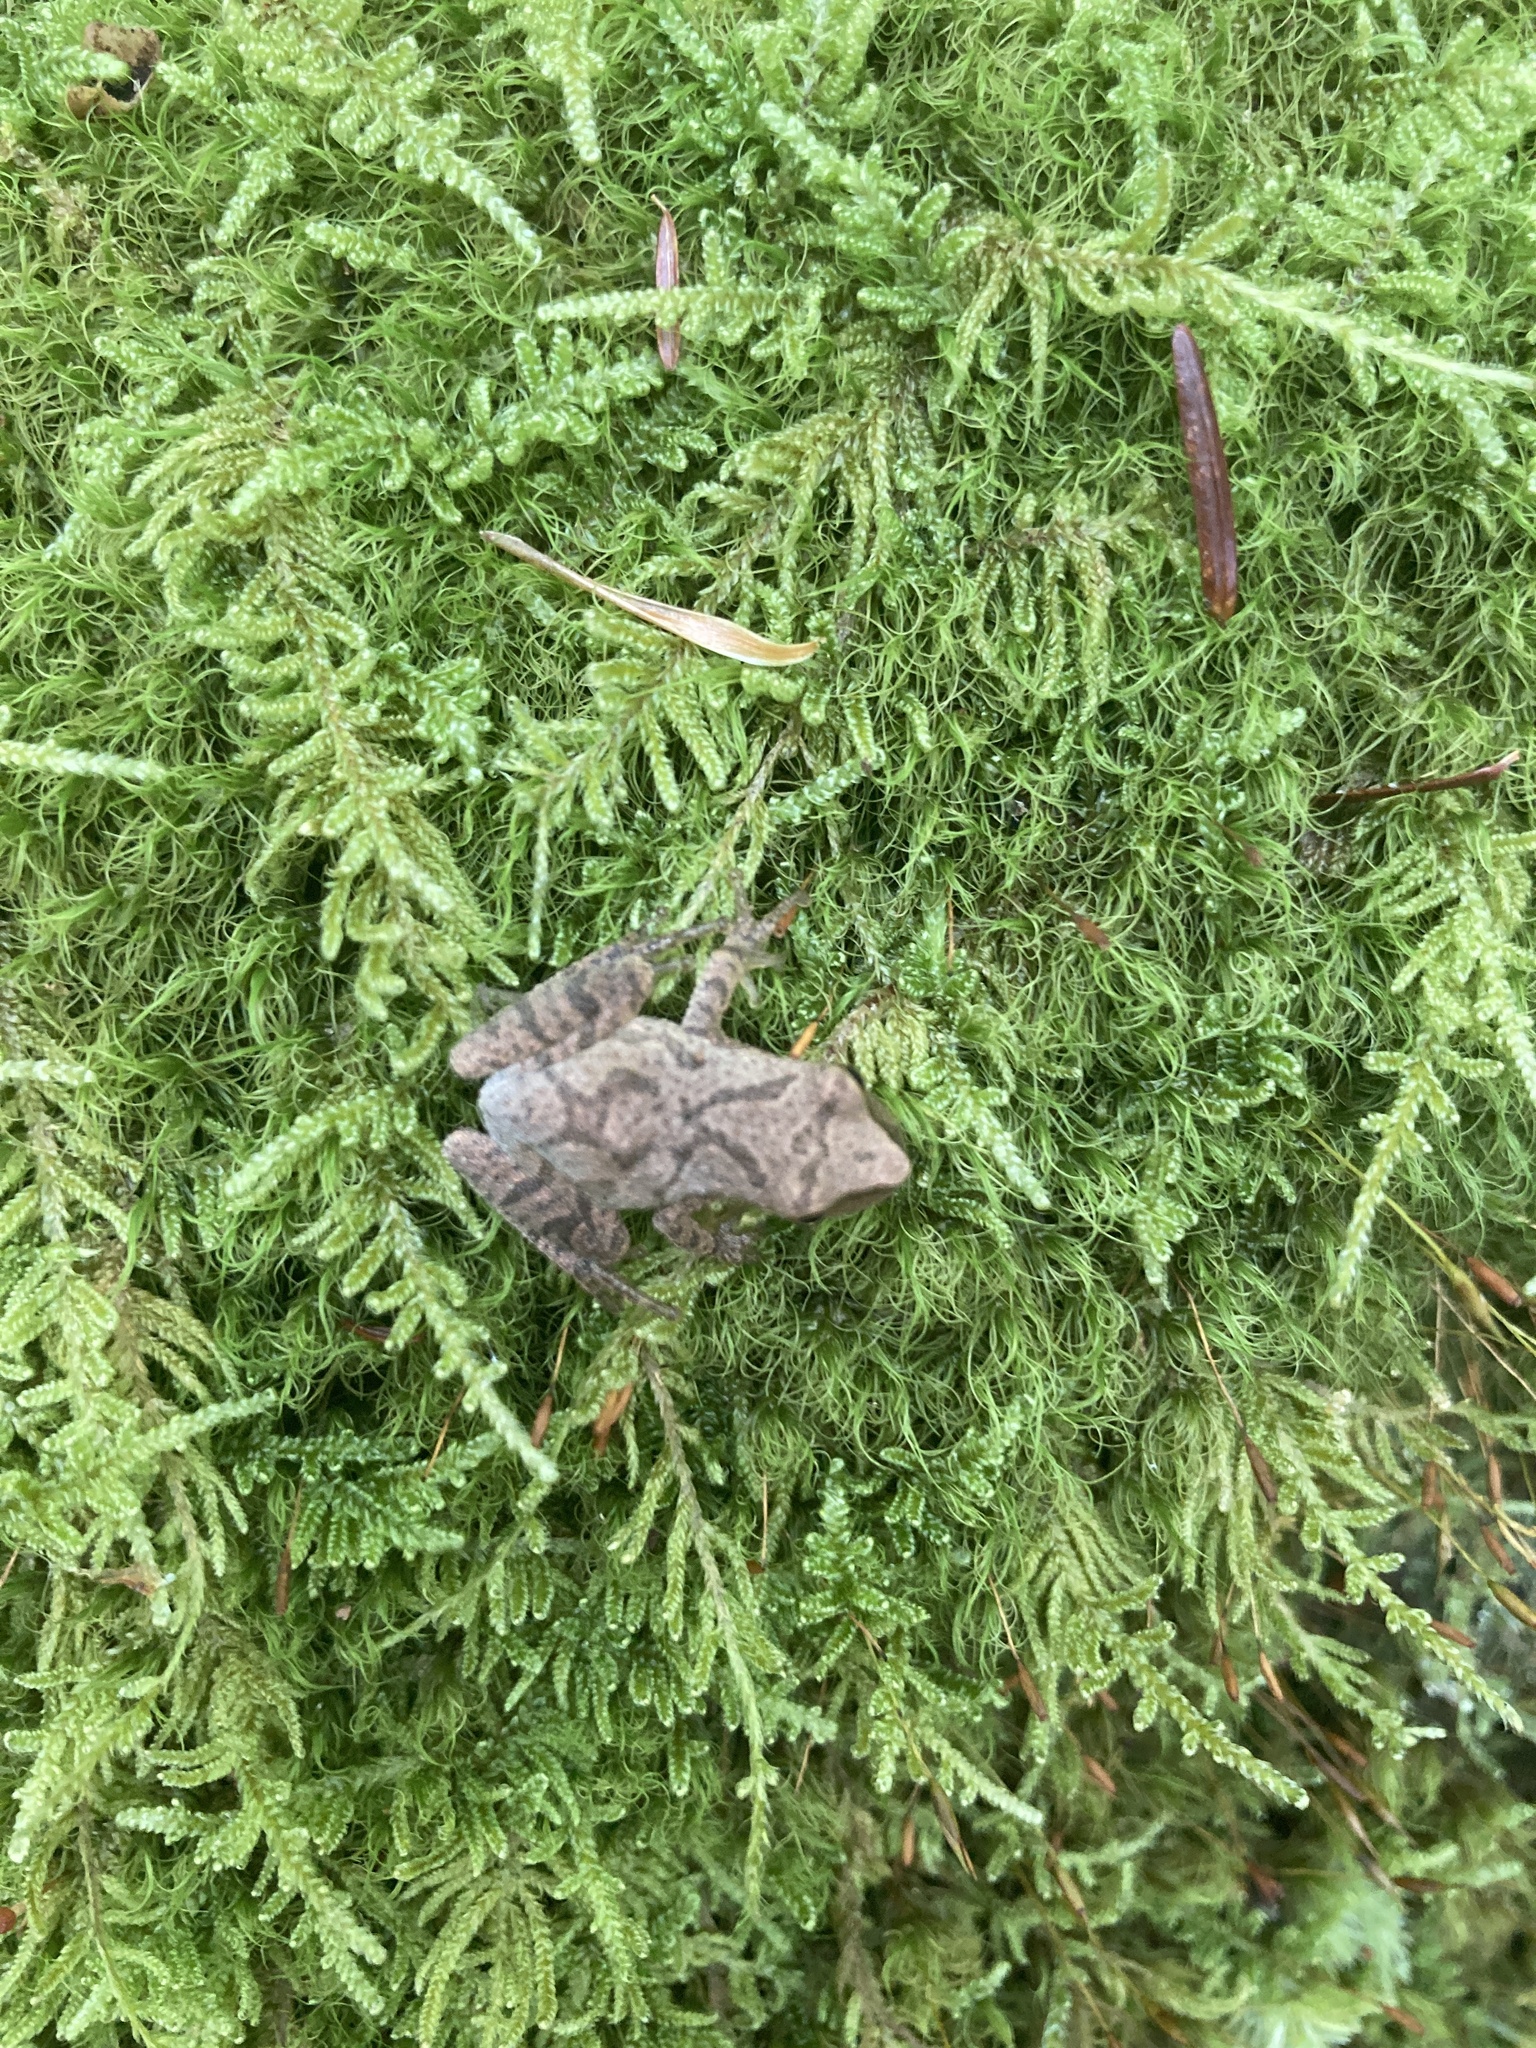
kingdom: Animalia
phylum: Chordata
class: Amphibia
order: Anura
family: Hylidae
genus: Pseudacris
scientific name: Pseudacris crucifer
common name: Spring peeper
